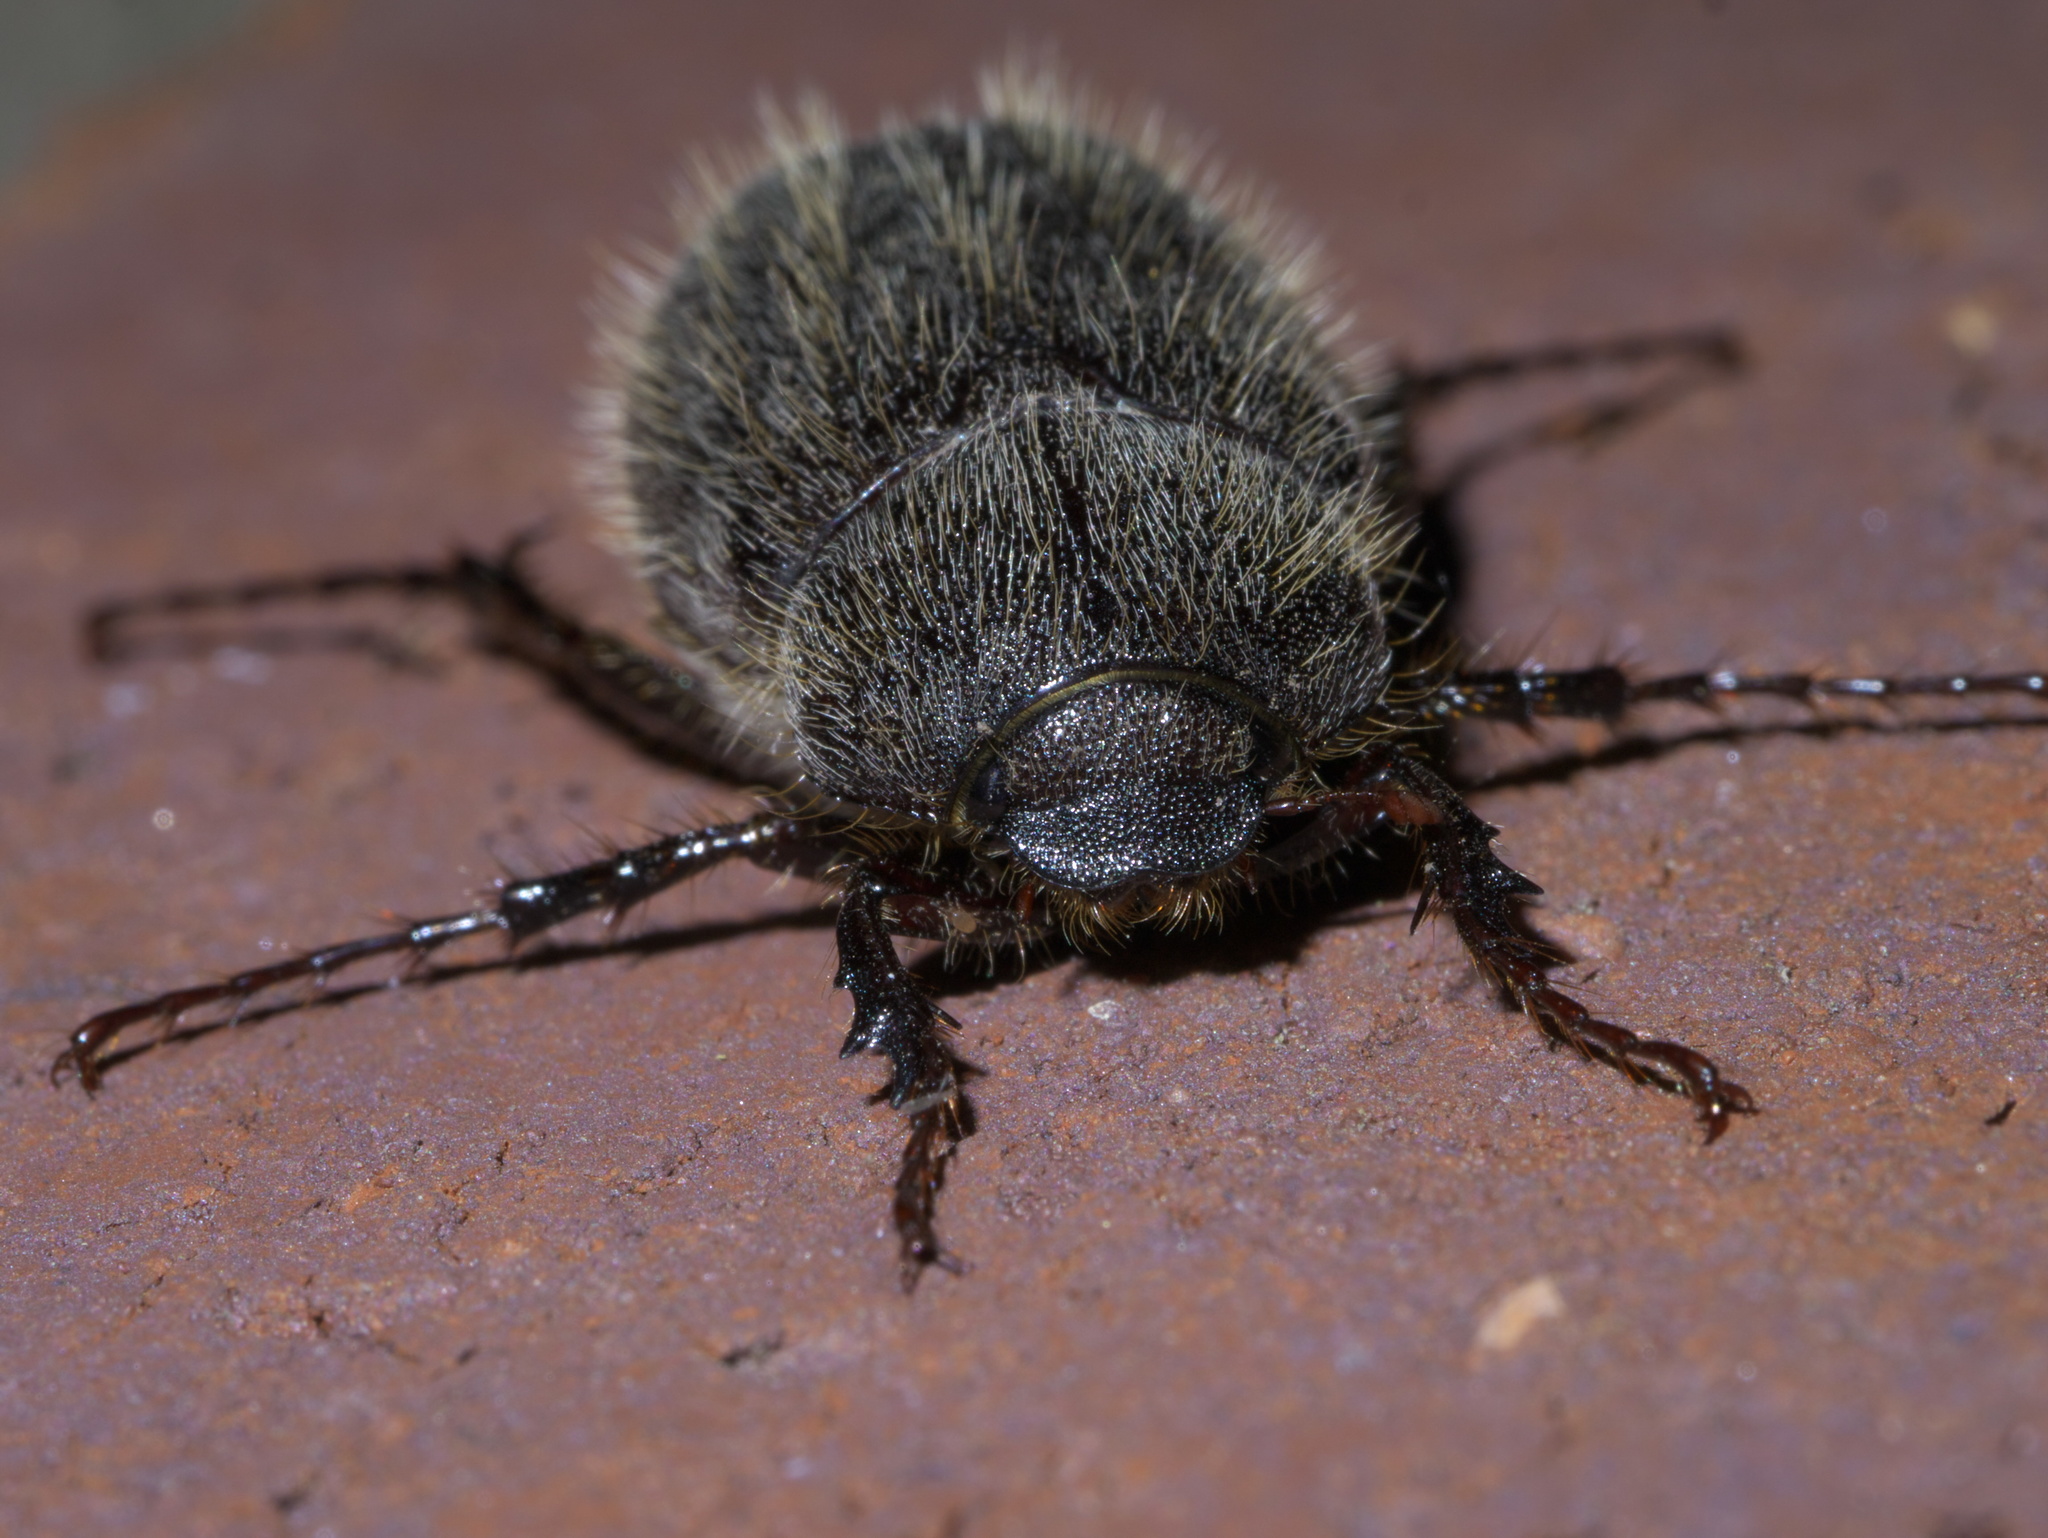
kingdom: Animalia
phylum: Arthropoda
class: Insecta
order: Coleoptera
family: Scarabaeidae
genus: Phyllophaga
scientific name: Phyllophaga crenulata
